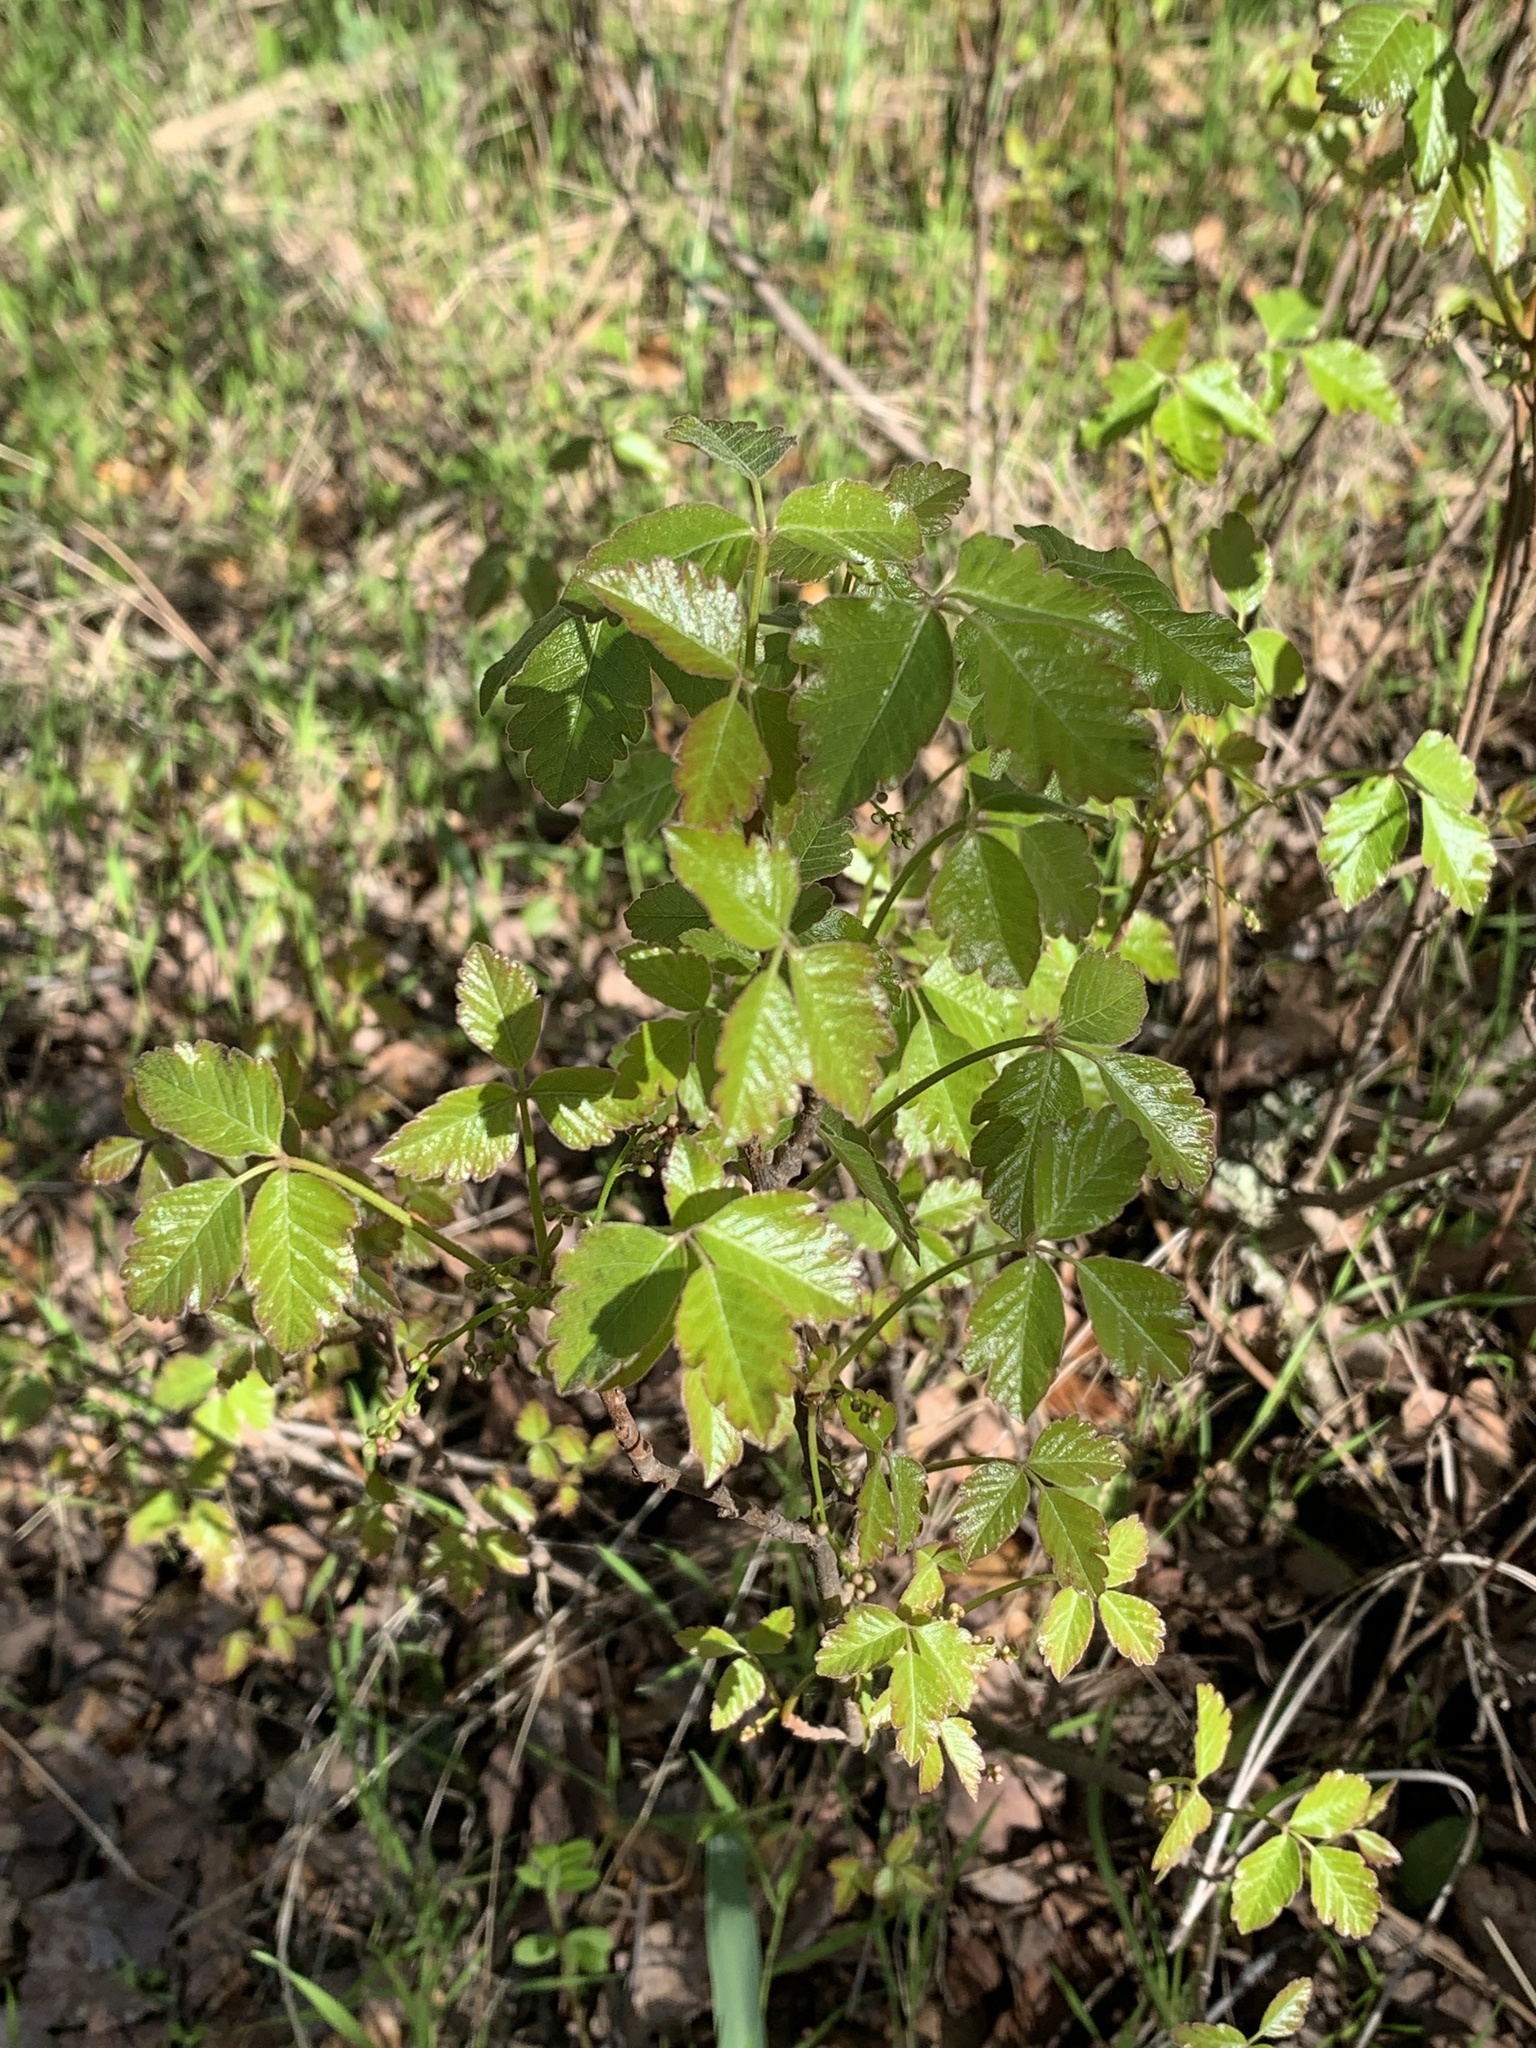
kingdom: Plantae
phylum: Tracheophyta
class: Magnoliopsida
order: Sapindales
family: Anacardiaceae
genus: Toxicodendron
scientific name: Toxicodendron diversilobum
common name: Pacific poison-oak
